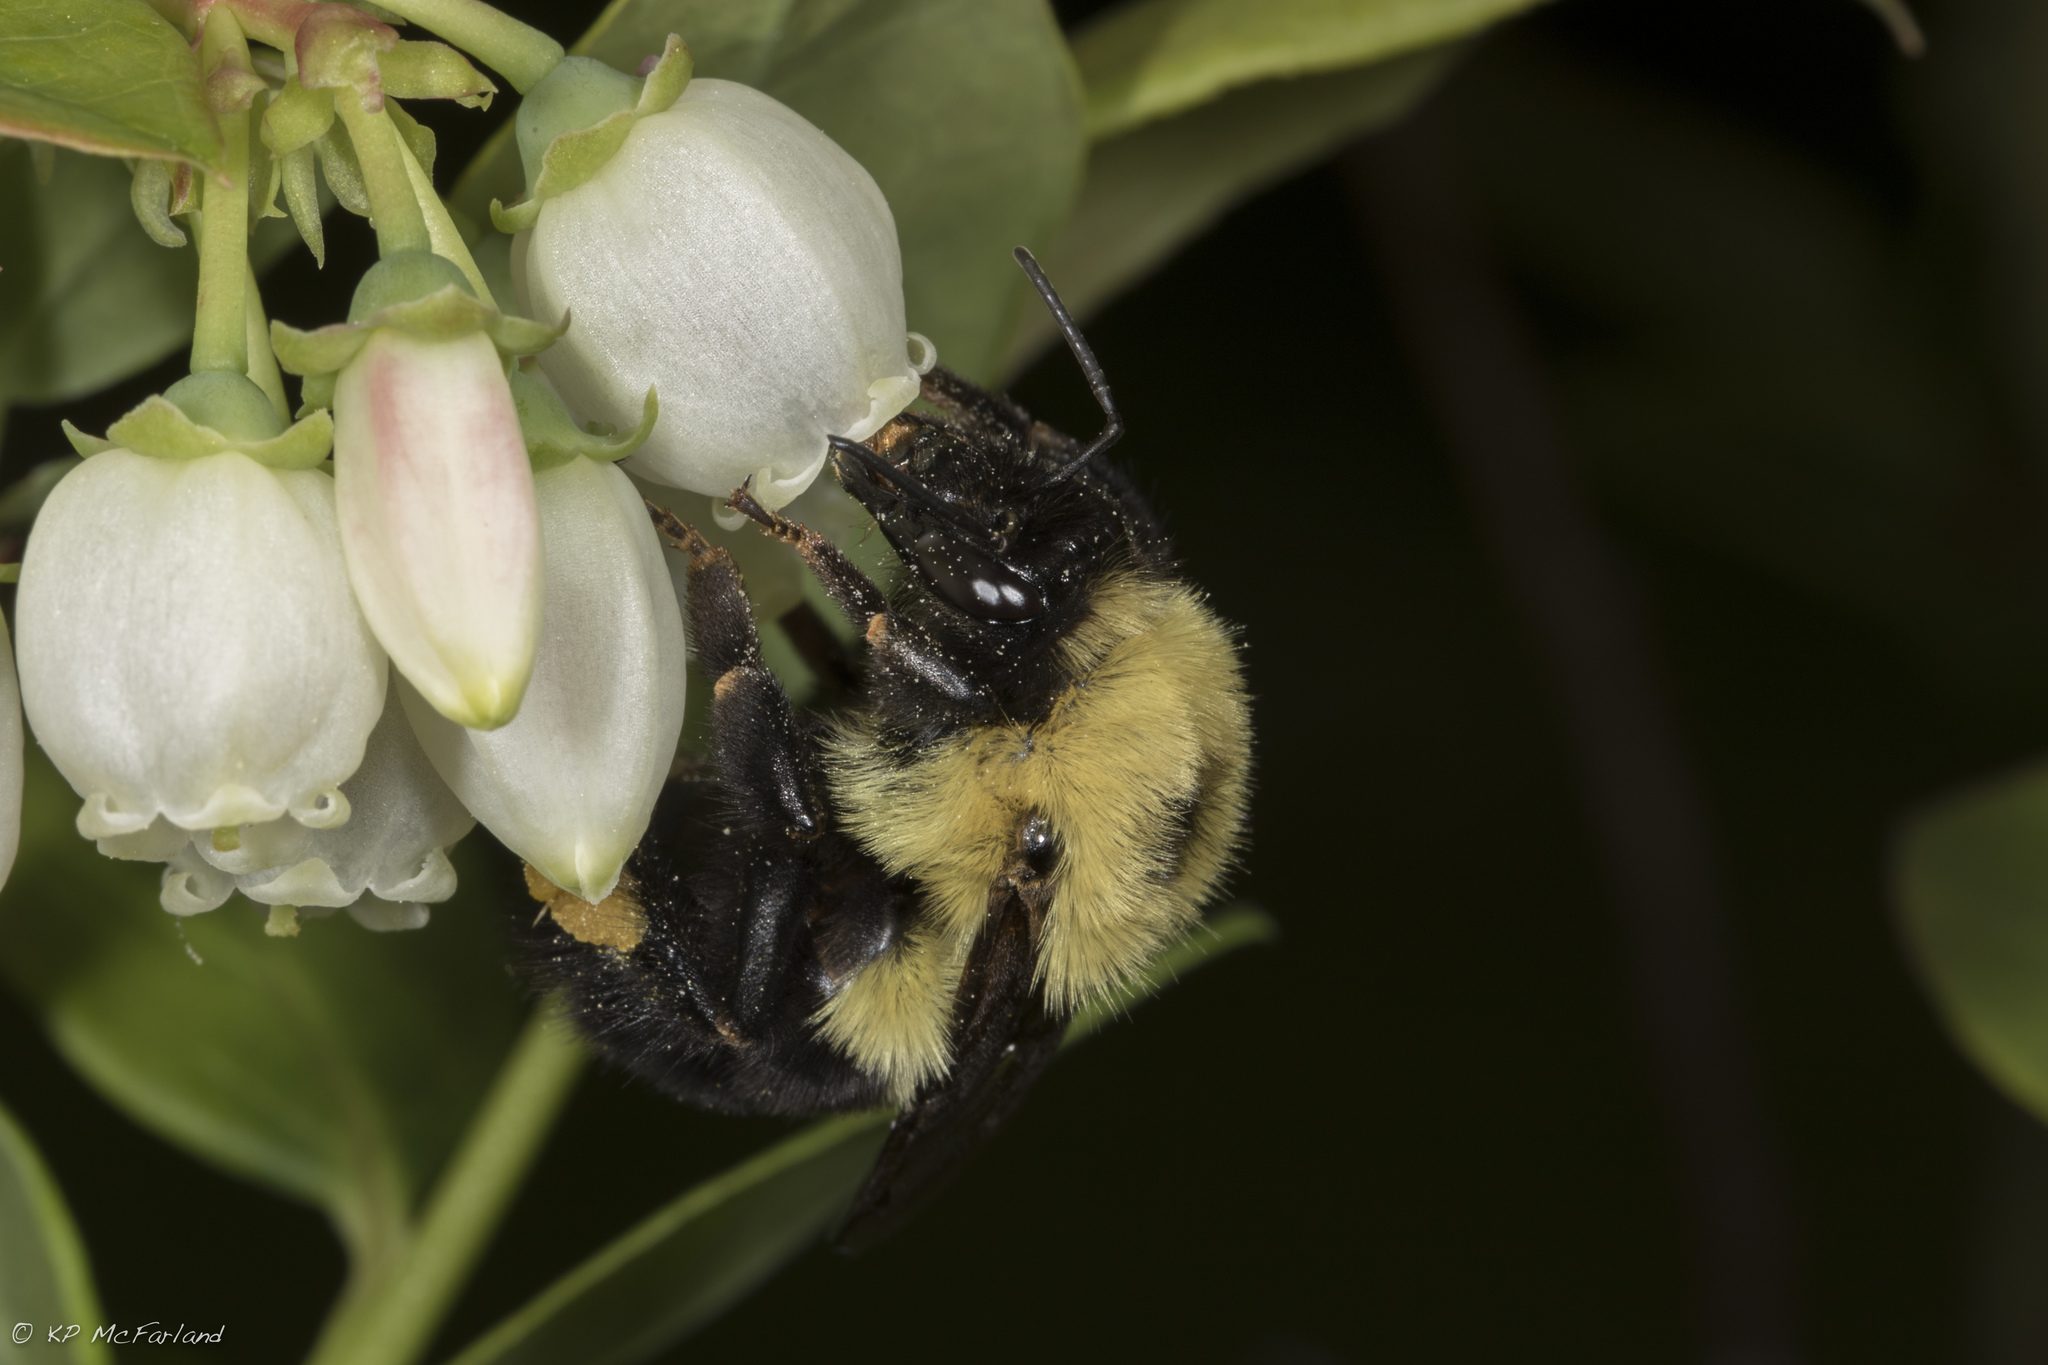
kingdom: Animalia
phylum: Arthropoda
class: Insecta
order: Hymenoptera
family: Apidae
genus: Bombus
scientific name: Bombus bimaculatus
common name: Two-spotted bumble bee
